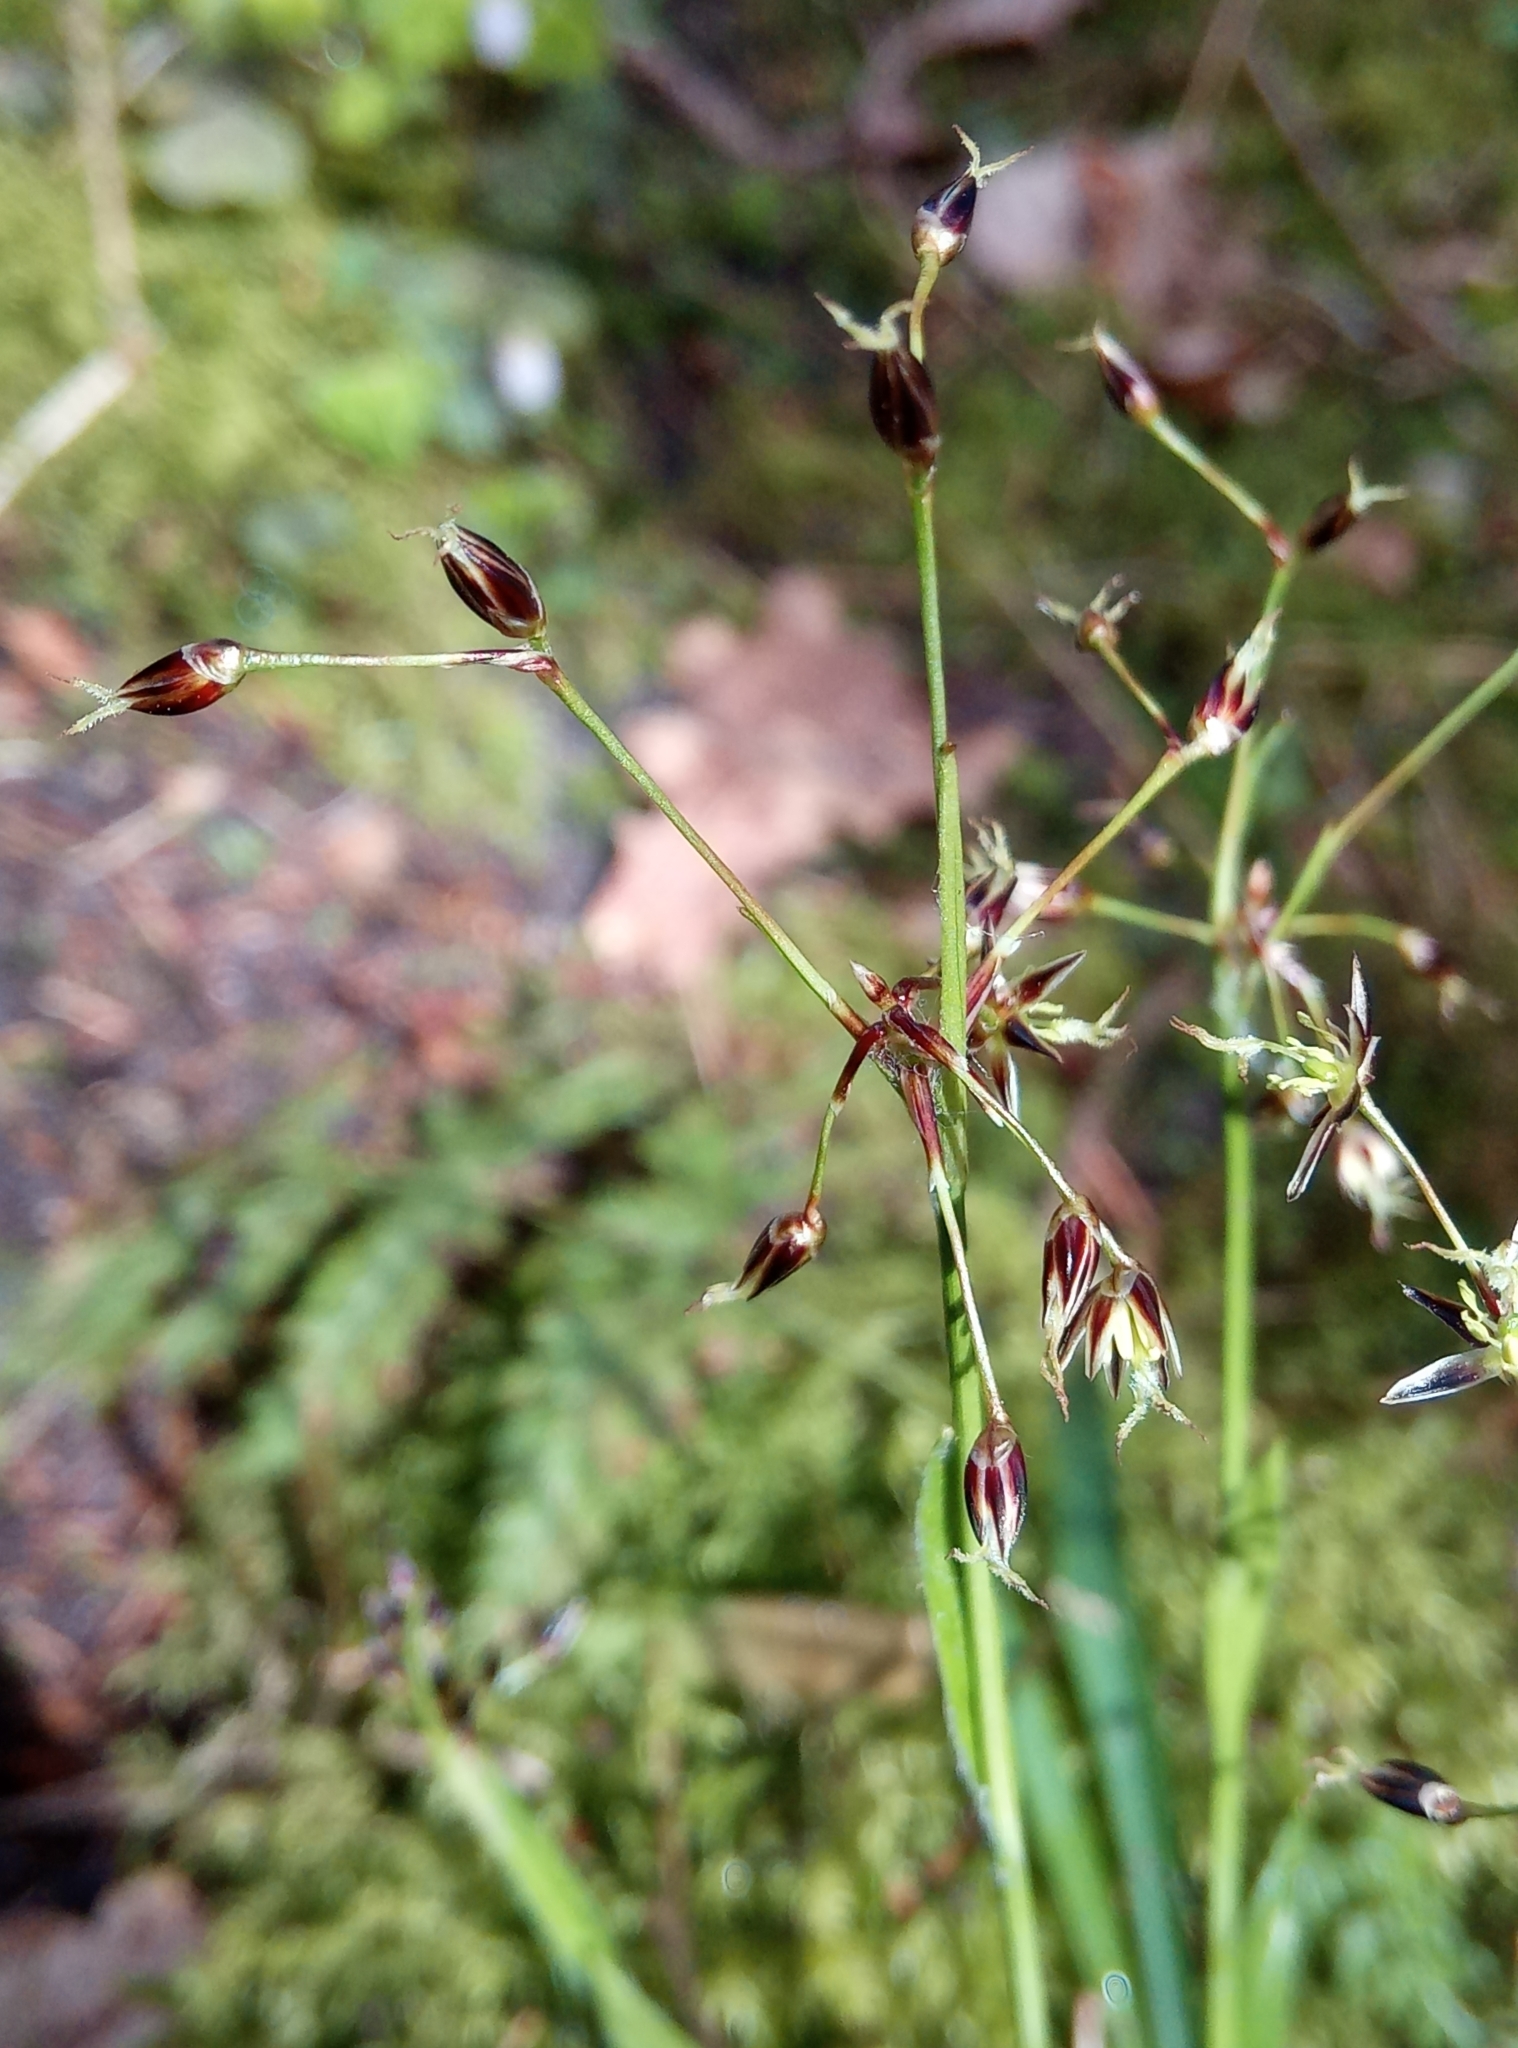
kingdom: Plantae
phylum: Tracheophyta
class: Liliopsida
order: Poales
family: Juncaceae
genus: Luzula
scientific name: Luzula pilosa
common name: Hairy wood-rush
